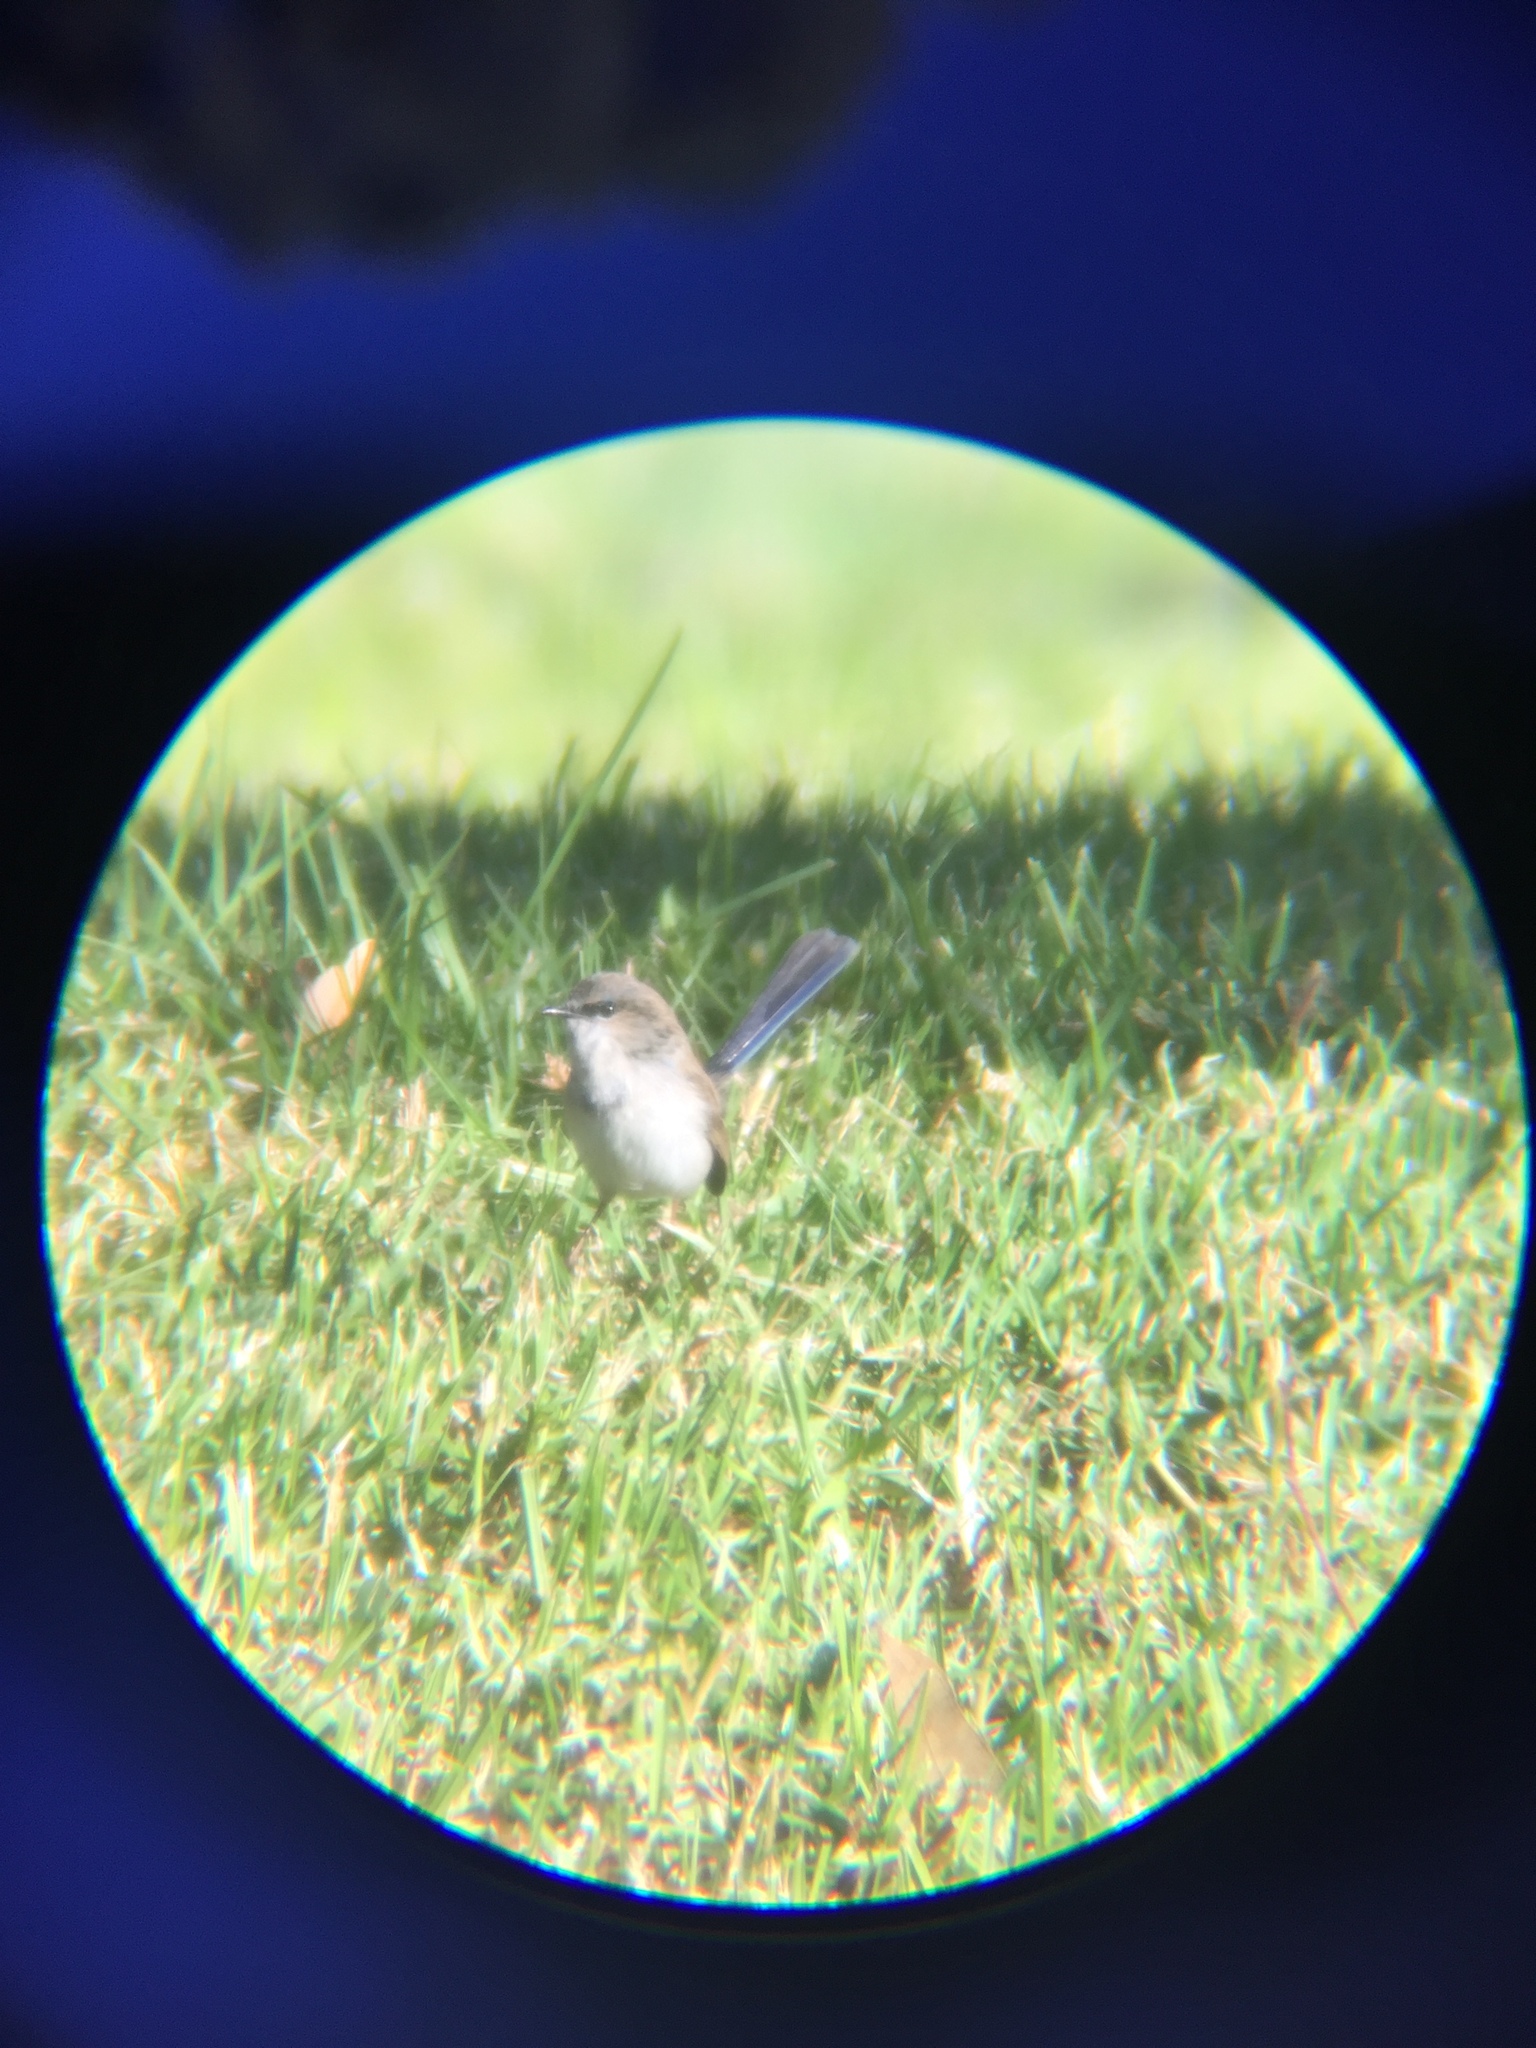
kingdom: Animalia
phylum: Chordata
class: Aves
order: Passeriformes
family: Maluridae
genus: Malurus
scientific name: Malurus cyaneus
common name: Superb fairywren
